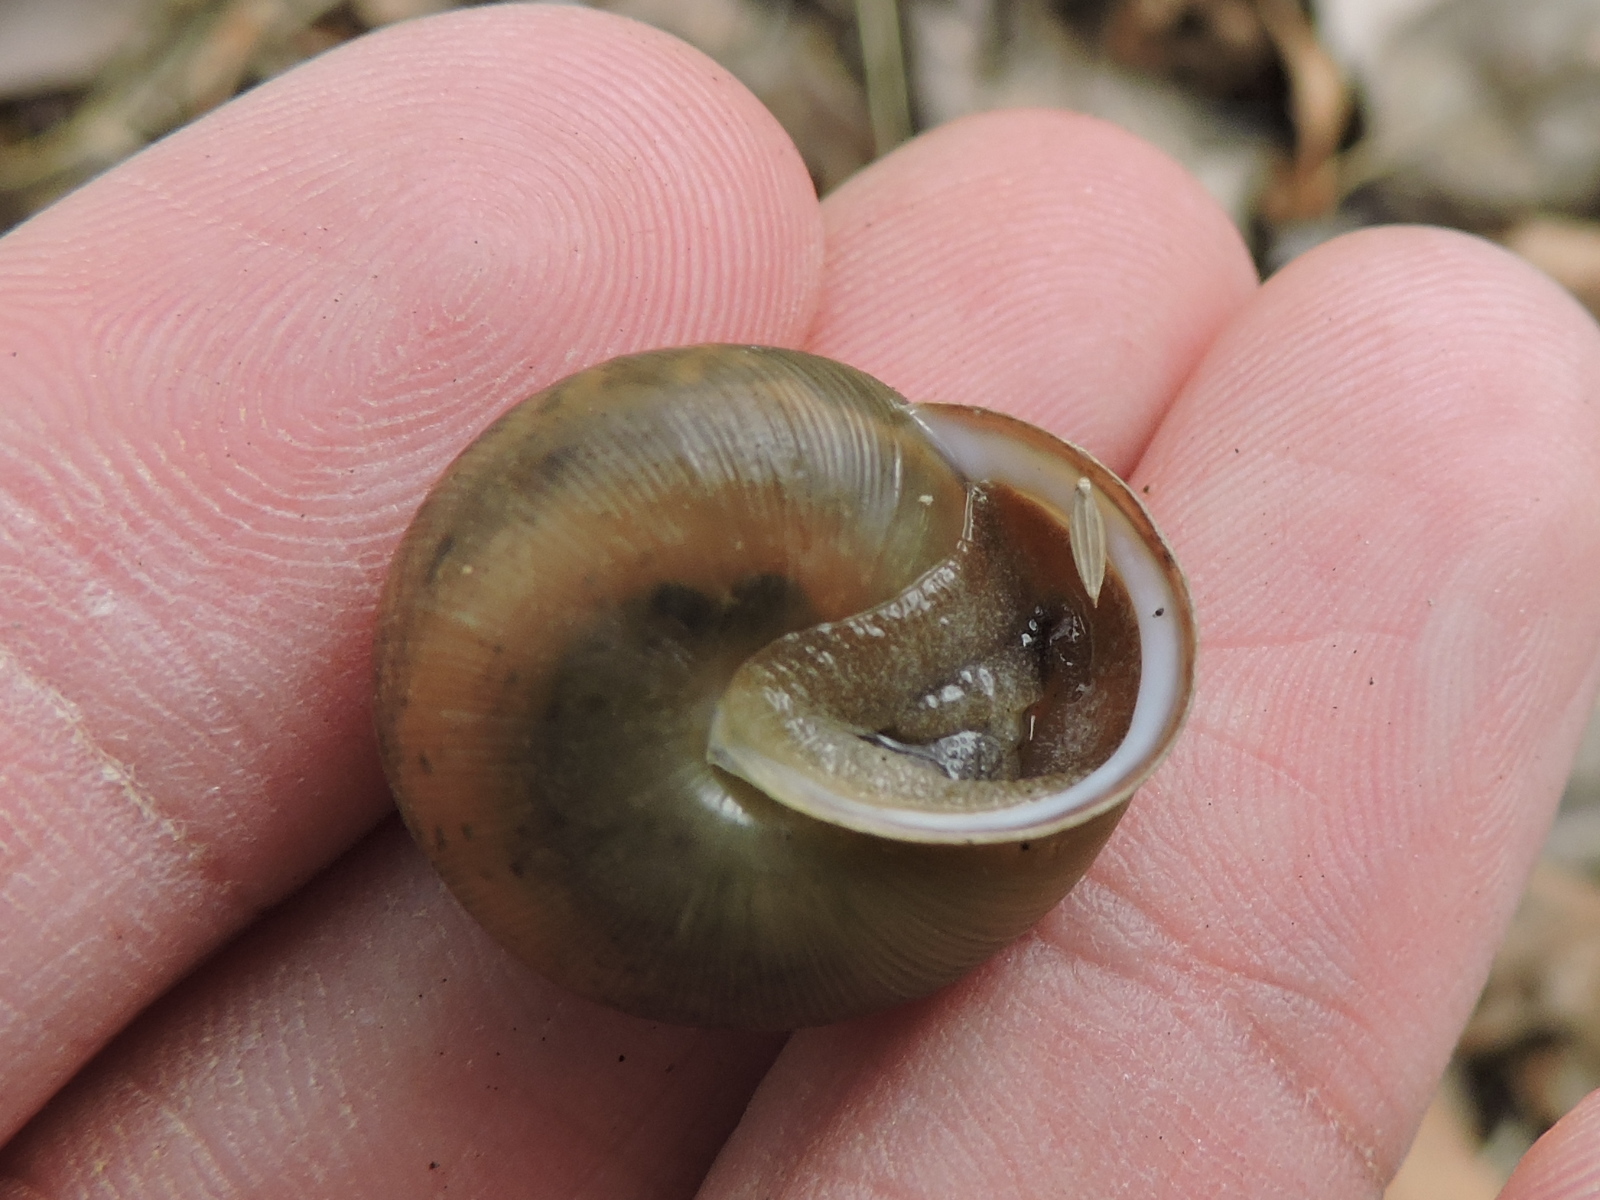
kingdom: Animalia
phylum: Mollusca
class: Gastropoda
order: Stylommatophora
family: Polygyridae
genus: Patera
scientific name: Patera roemeri
